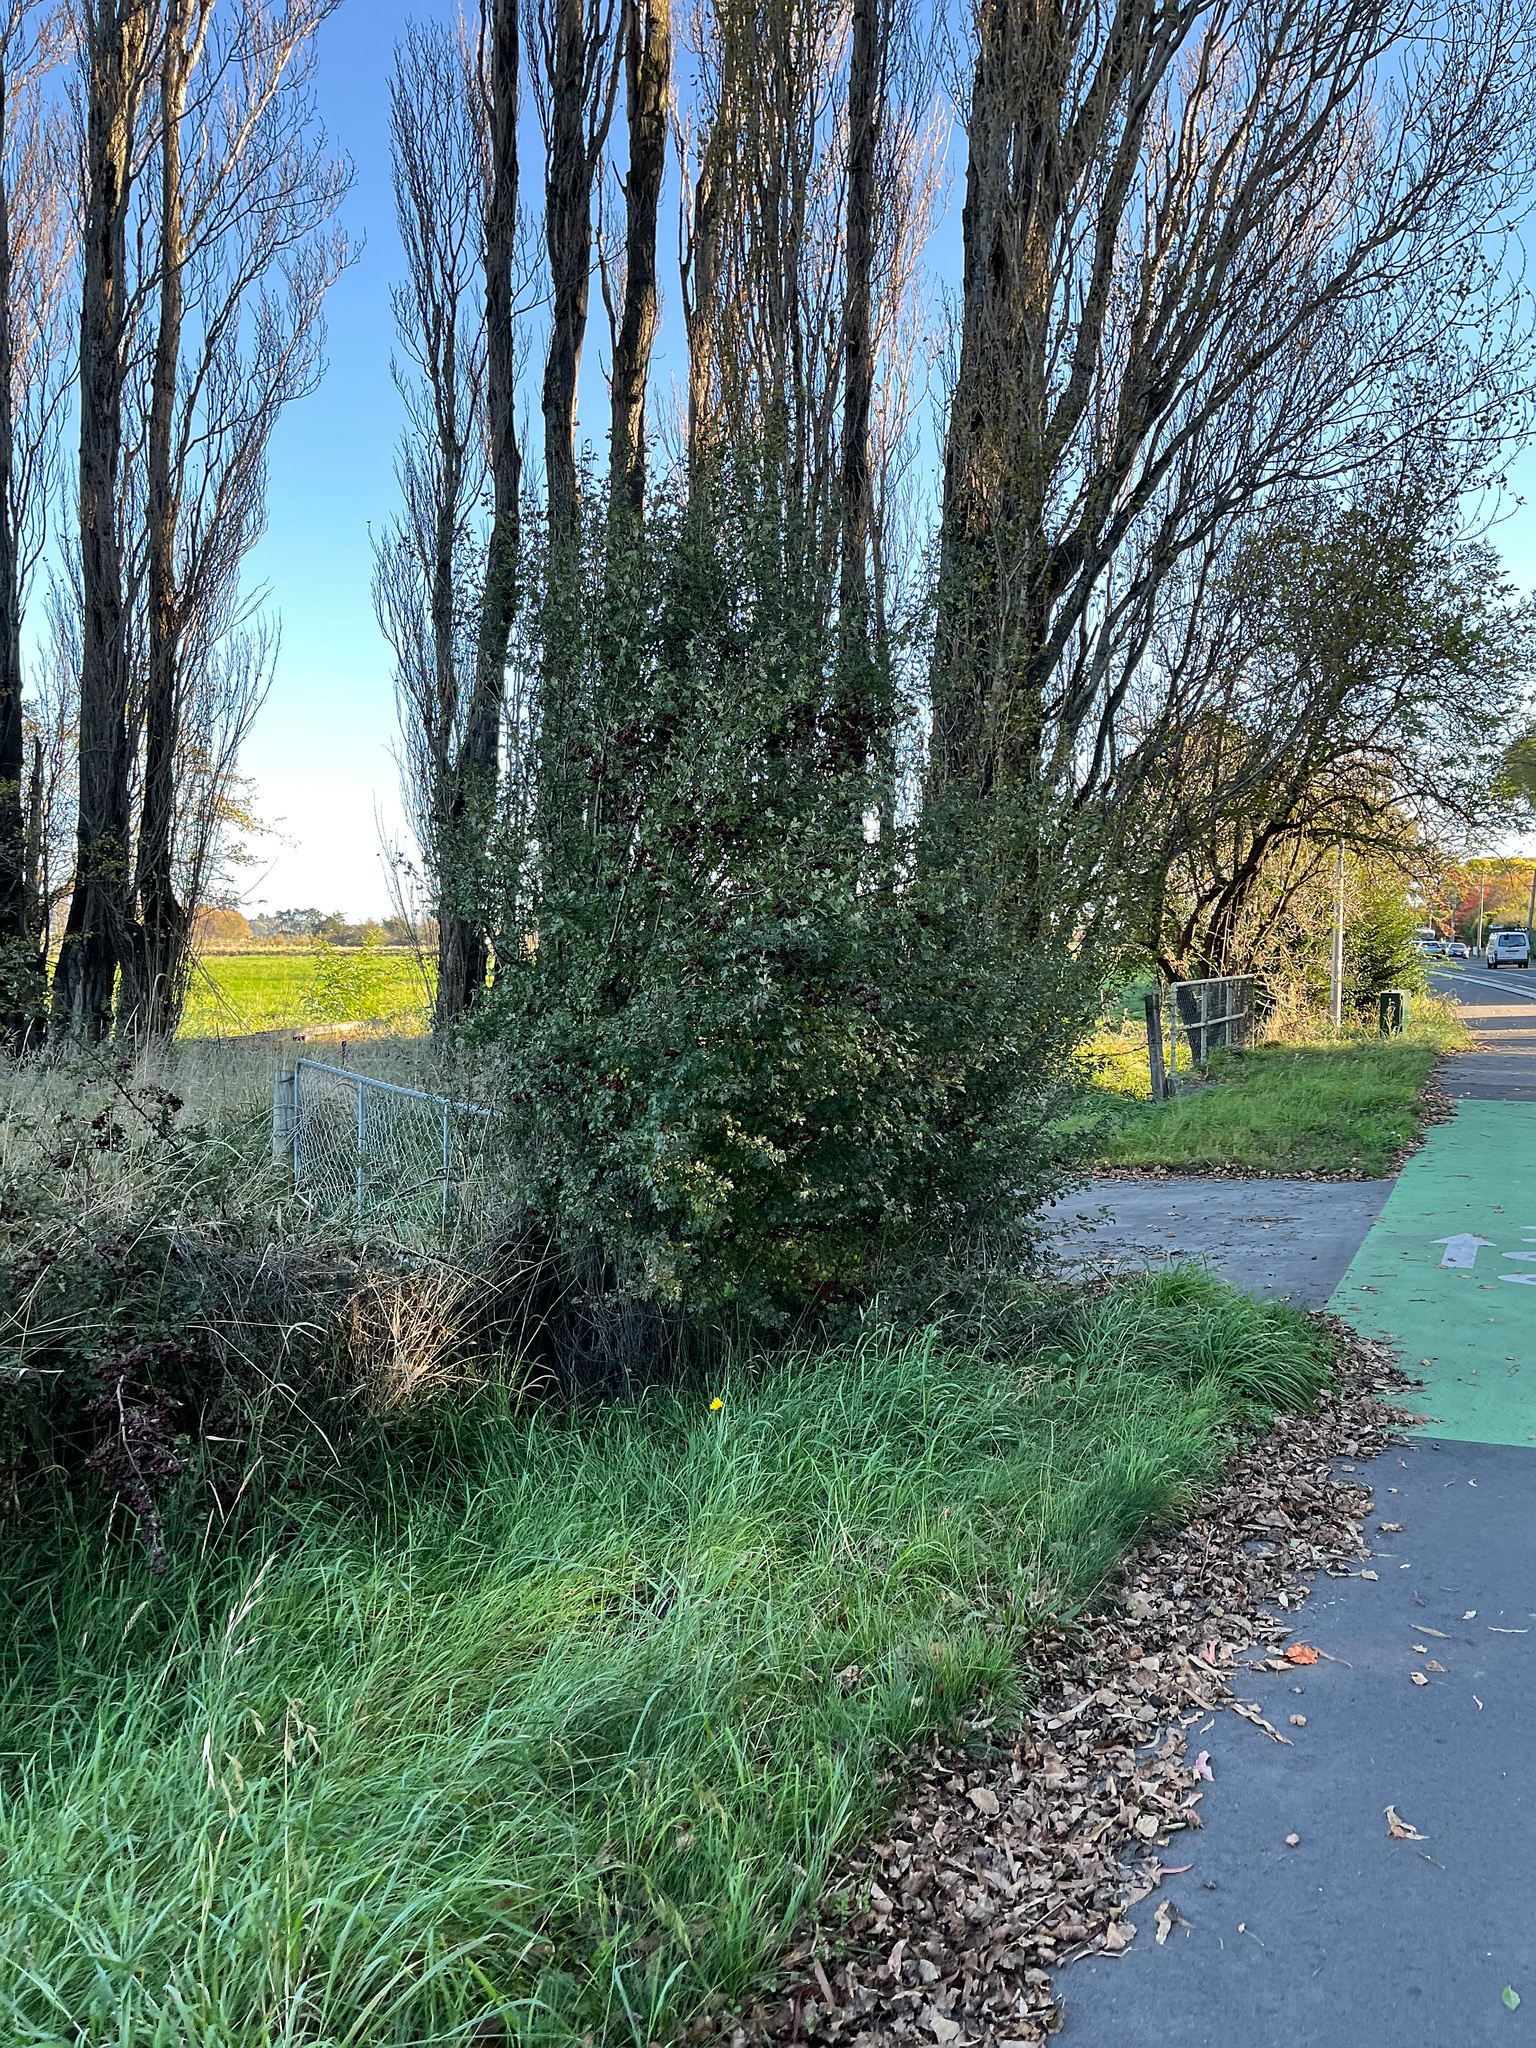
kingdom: Plantae
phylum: Tracheophyta
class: Magnoliopsida
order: Rosales
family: Rosaceae
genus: Crataegus
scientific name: Crataegus monogyna
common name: Hawthorn
